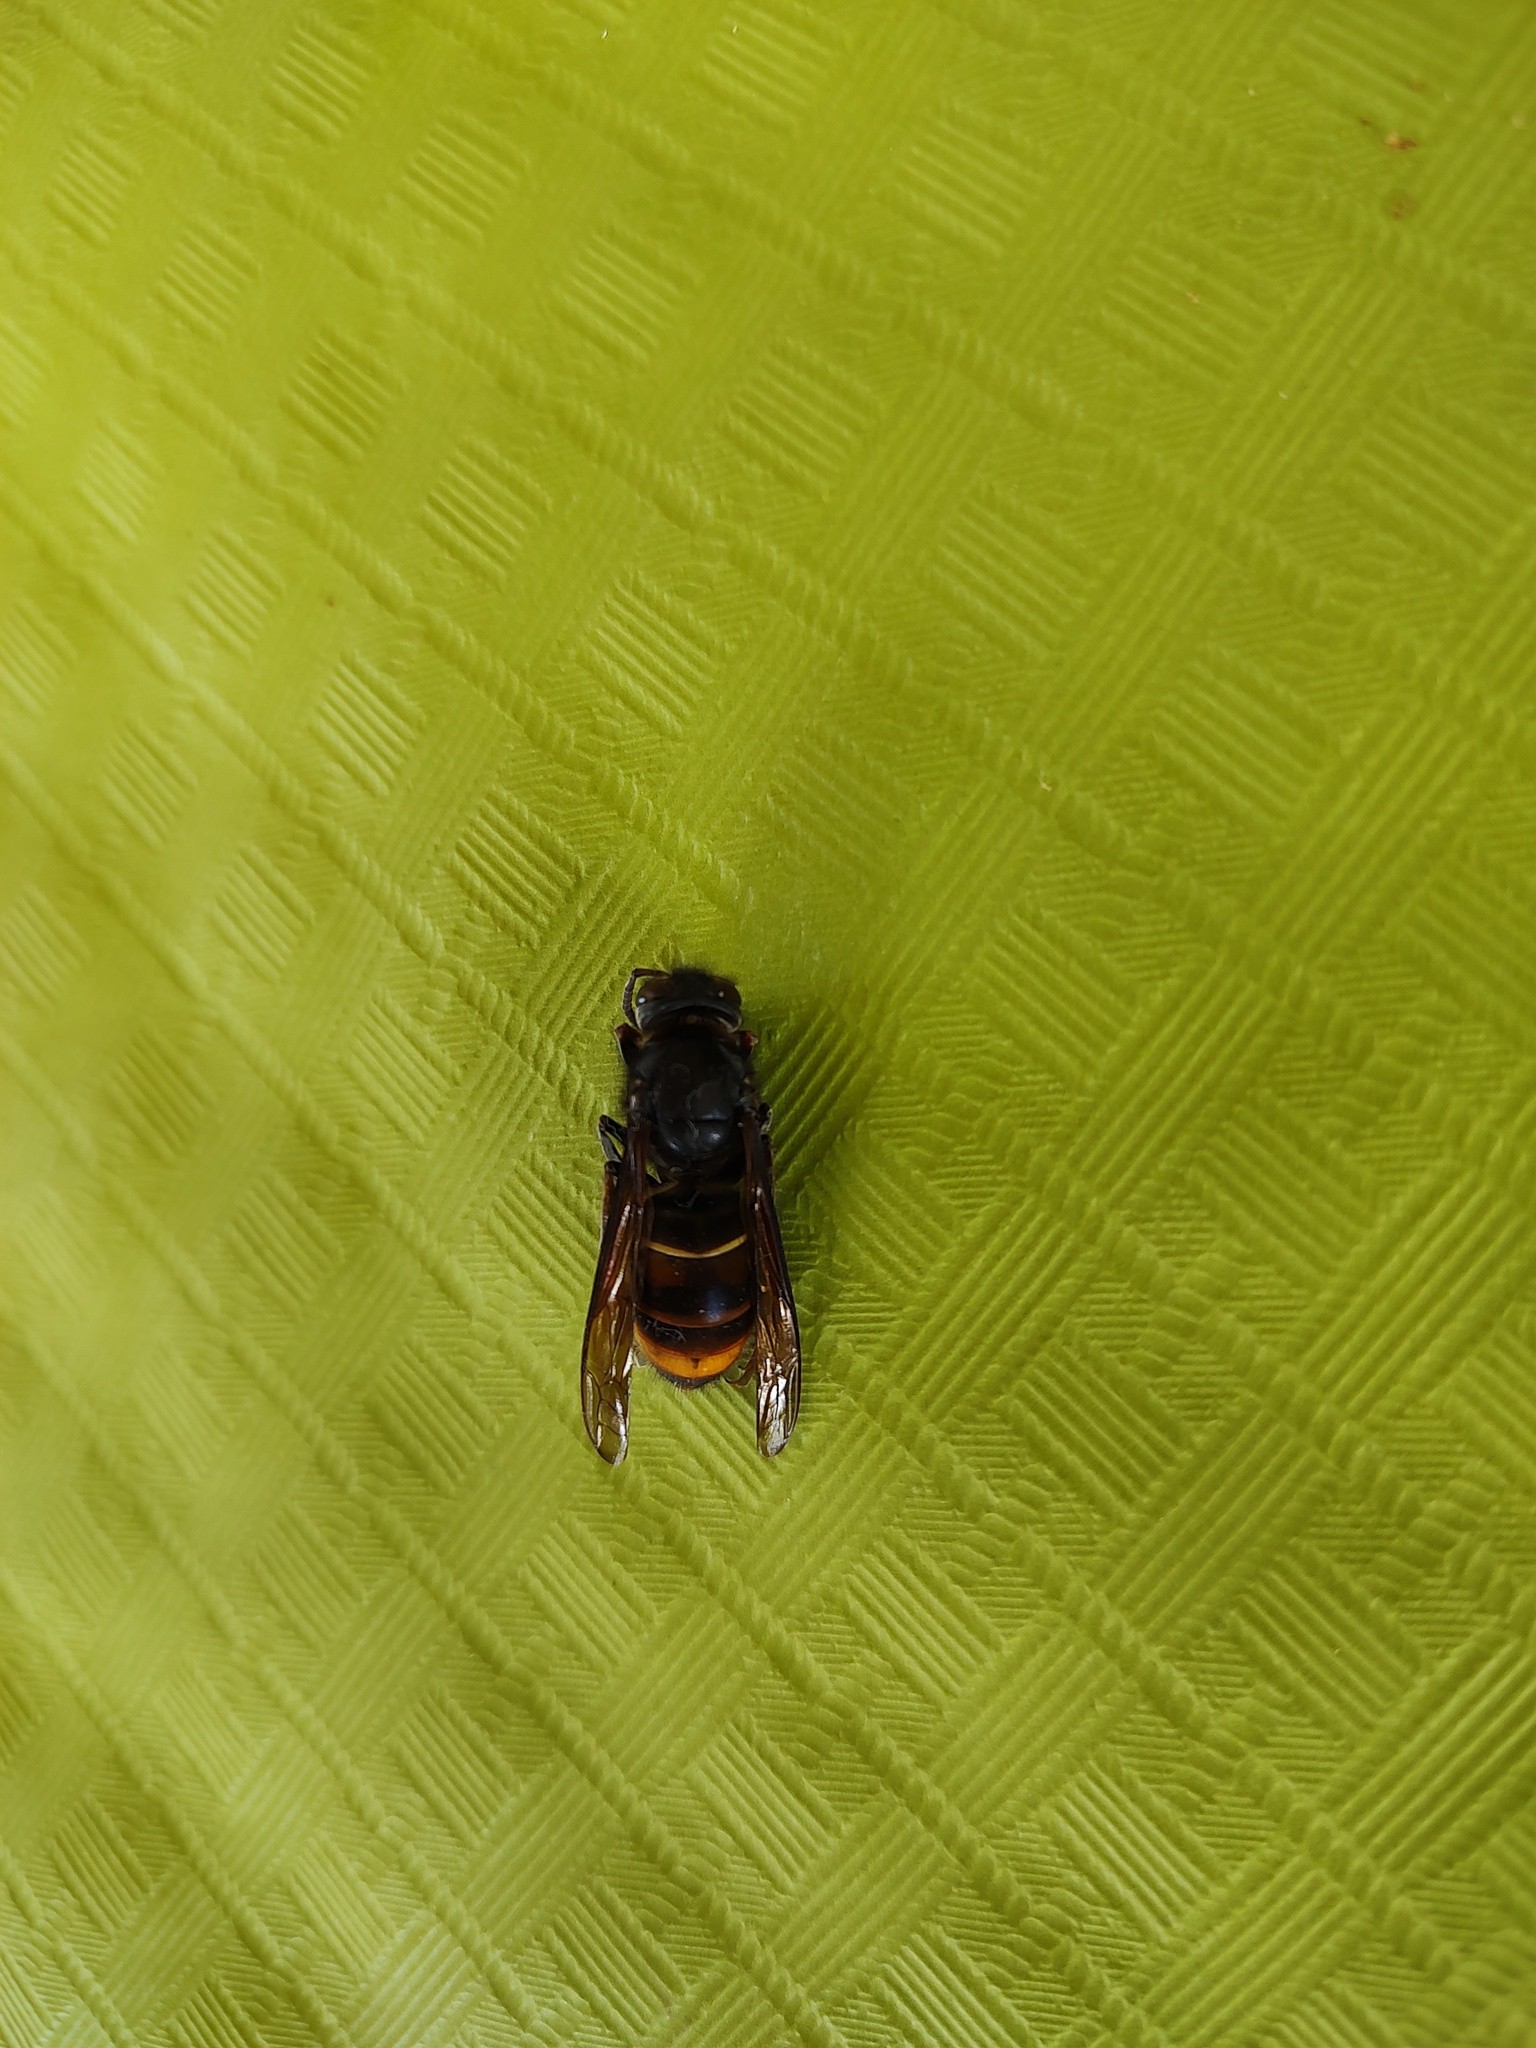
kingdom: Animalia
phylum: Arthropoda
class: Insecta
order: Hymenoptera
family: Vespidae
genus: Vespa
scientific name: Vespa velutina
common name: Asian hornet
